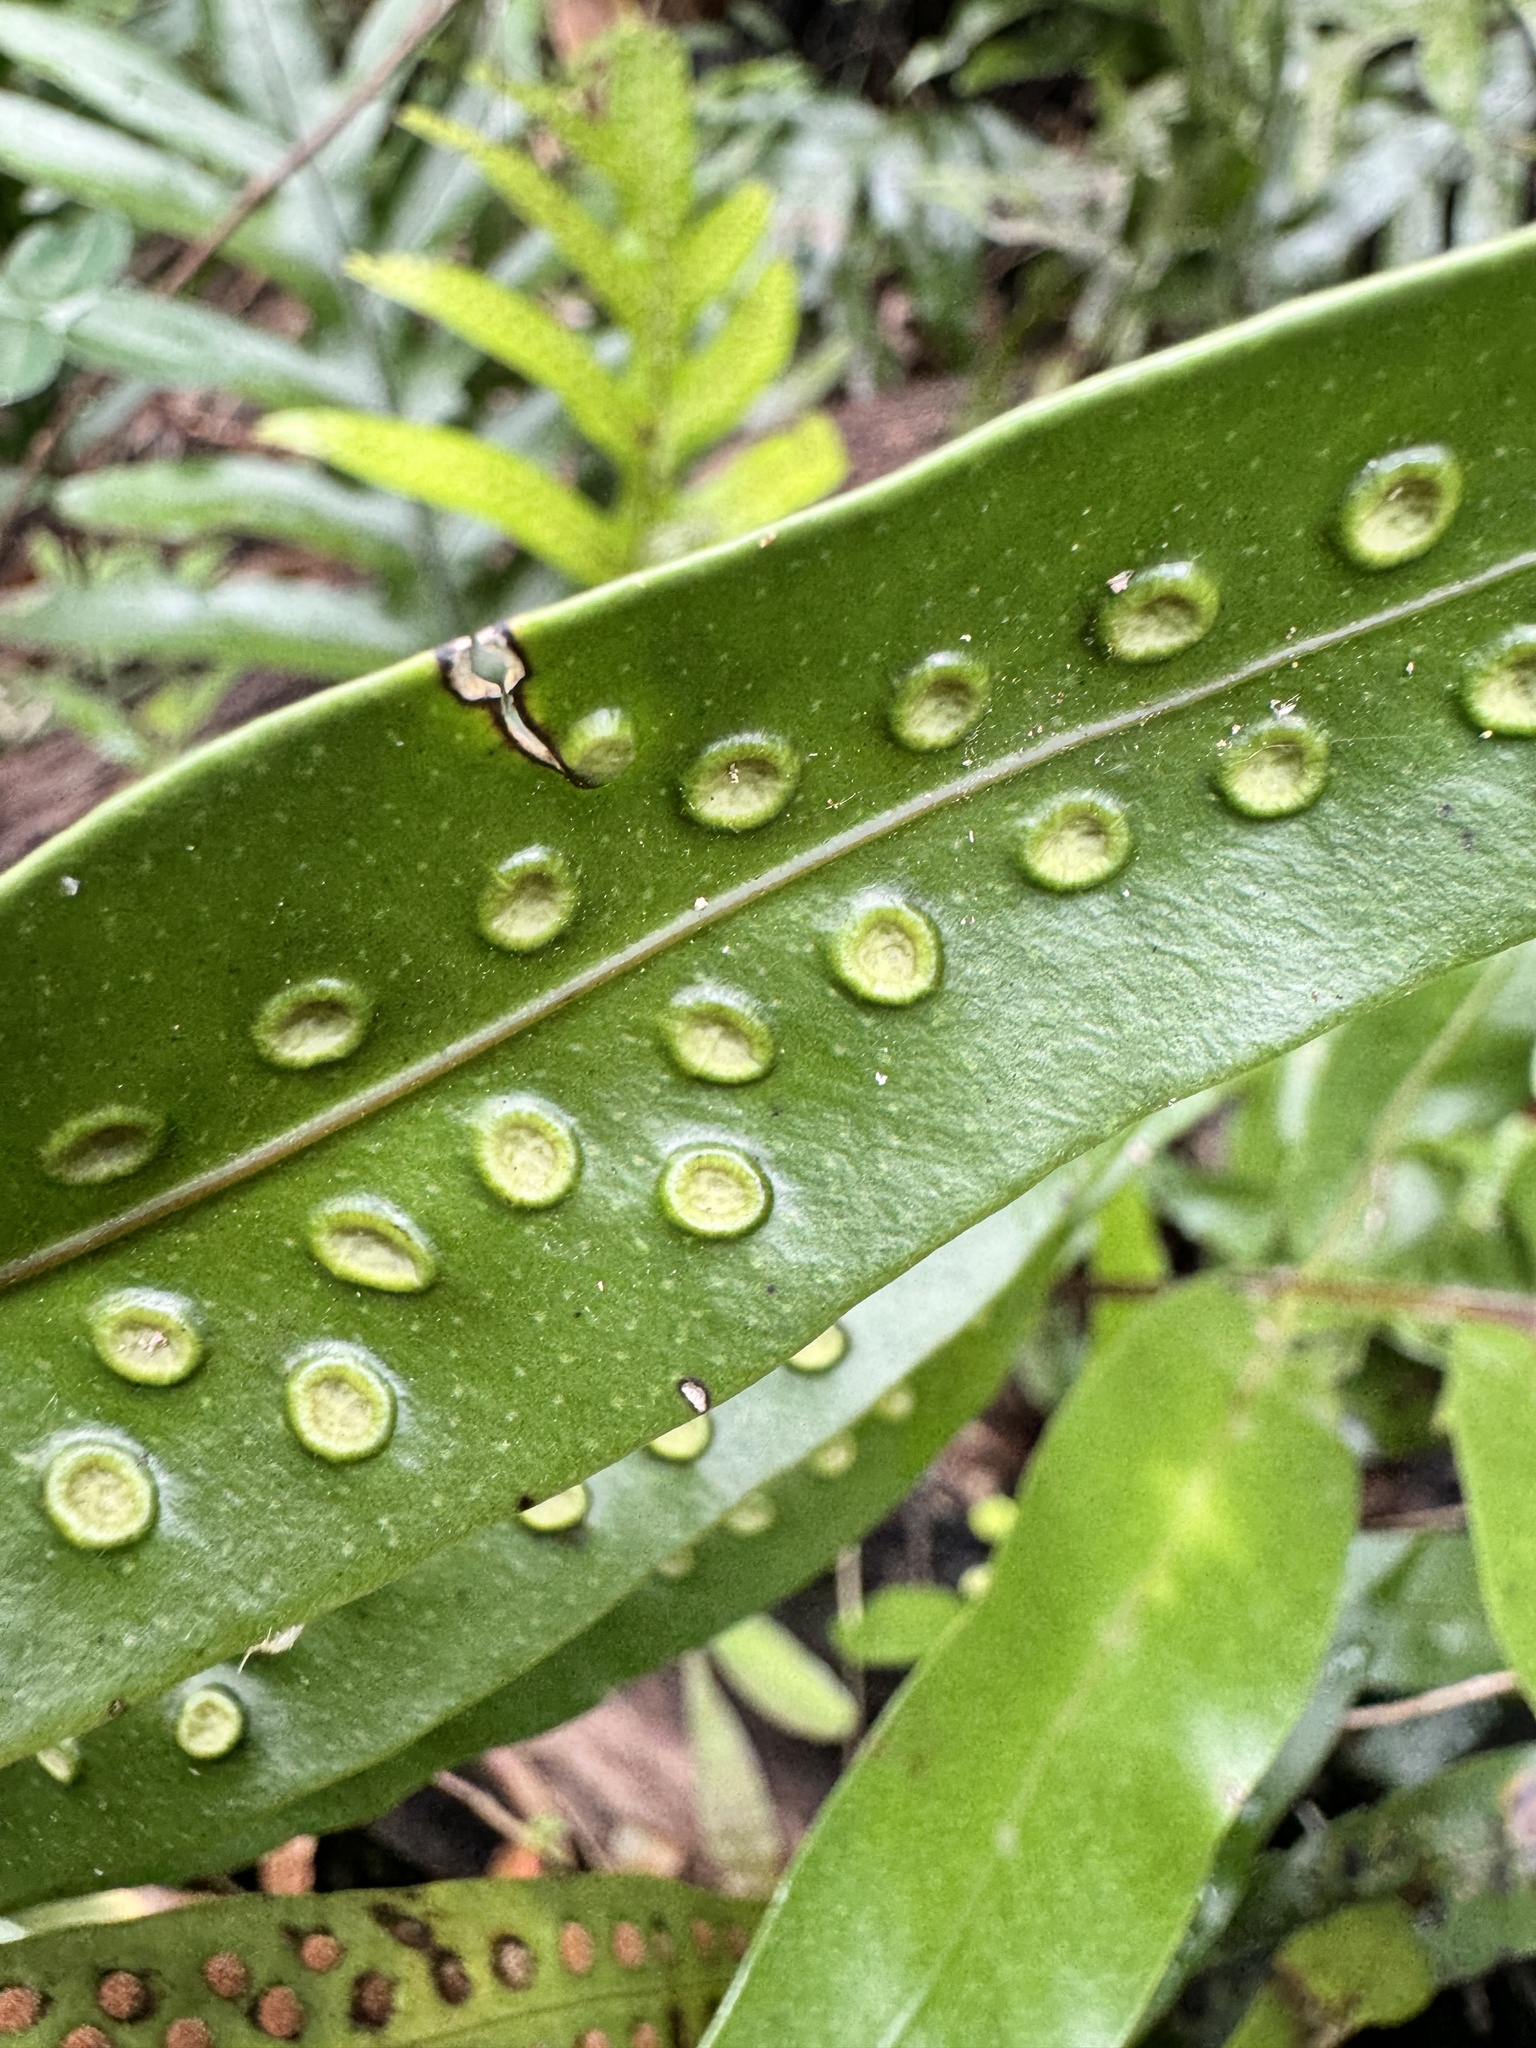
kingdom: Plantae
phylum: Tracheophyta
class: Polypodiopsida
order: Polypodiales
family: Polypodiaceae
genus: Microsorum
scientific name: Microsorum grossum
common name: Musk fern
